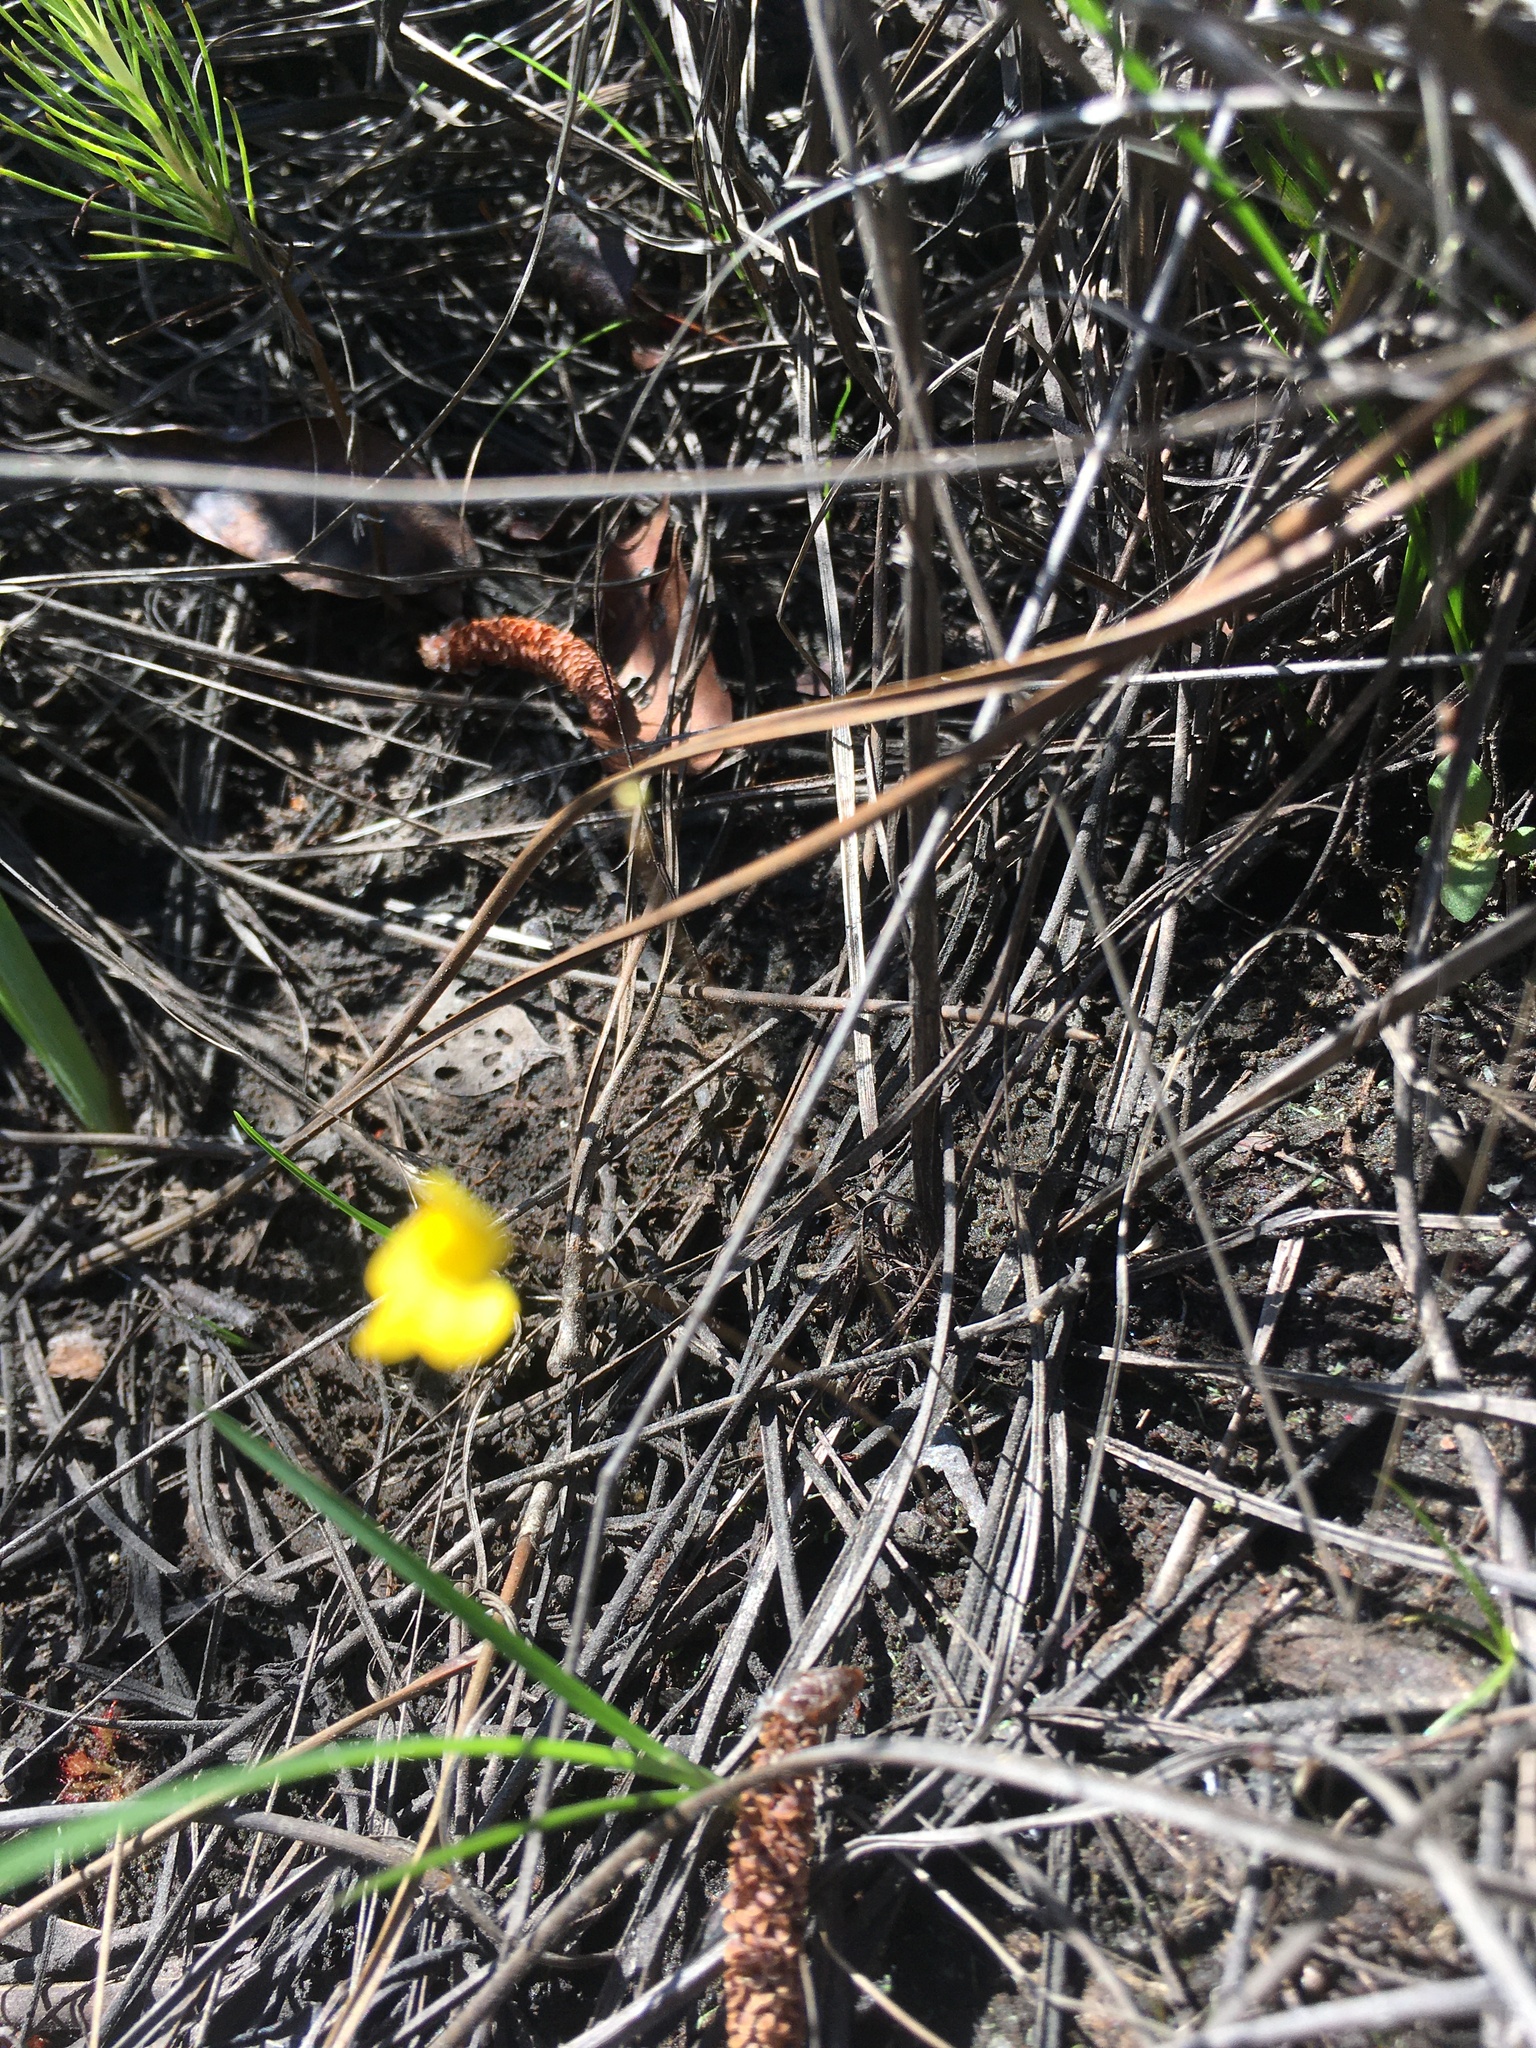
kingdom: Plantae
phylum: Tracheophyta
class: Magnoliopsida
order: Lamiales
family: Lentibulariaceae
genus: Utricularia
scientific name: Utricularia subulata
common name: Tiny bladderwort
